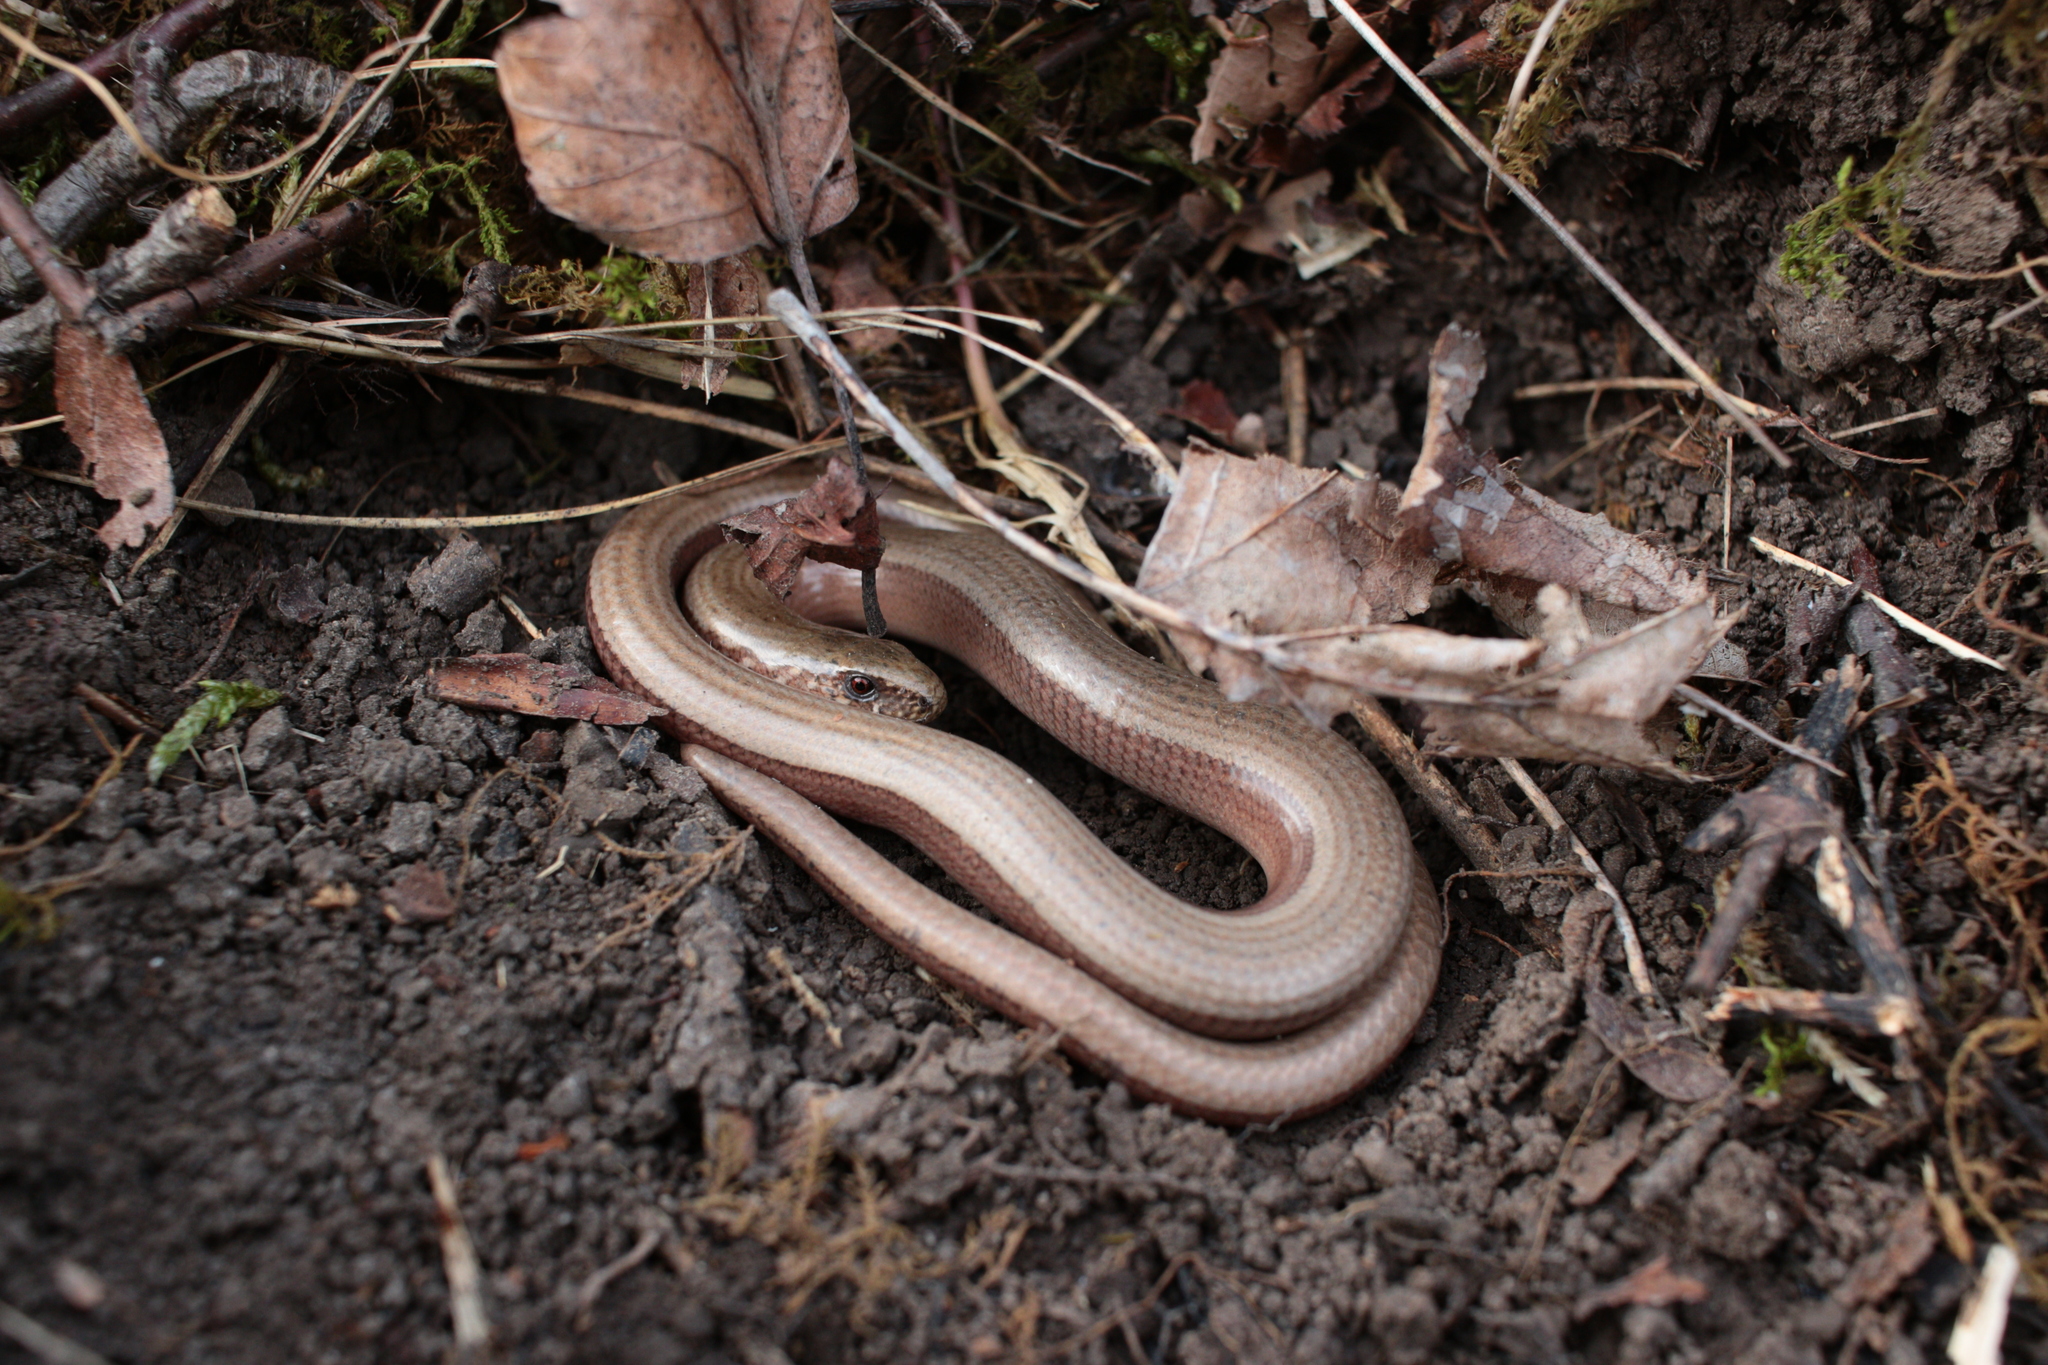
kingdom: Animalia
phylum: Chordata
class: Squamata
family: Anguidae
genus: Anguis
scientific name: Anguis fragilis
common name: Slow worm
